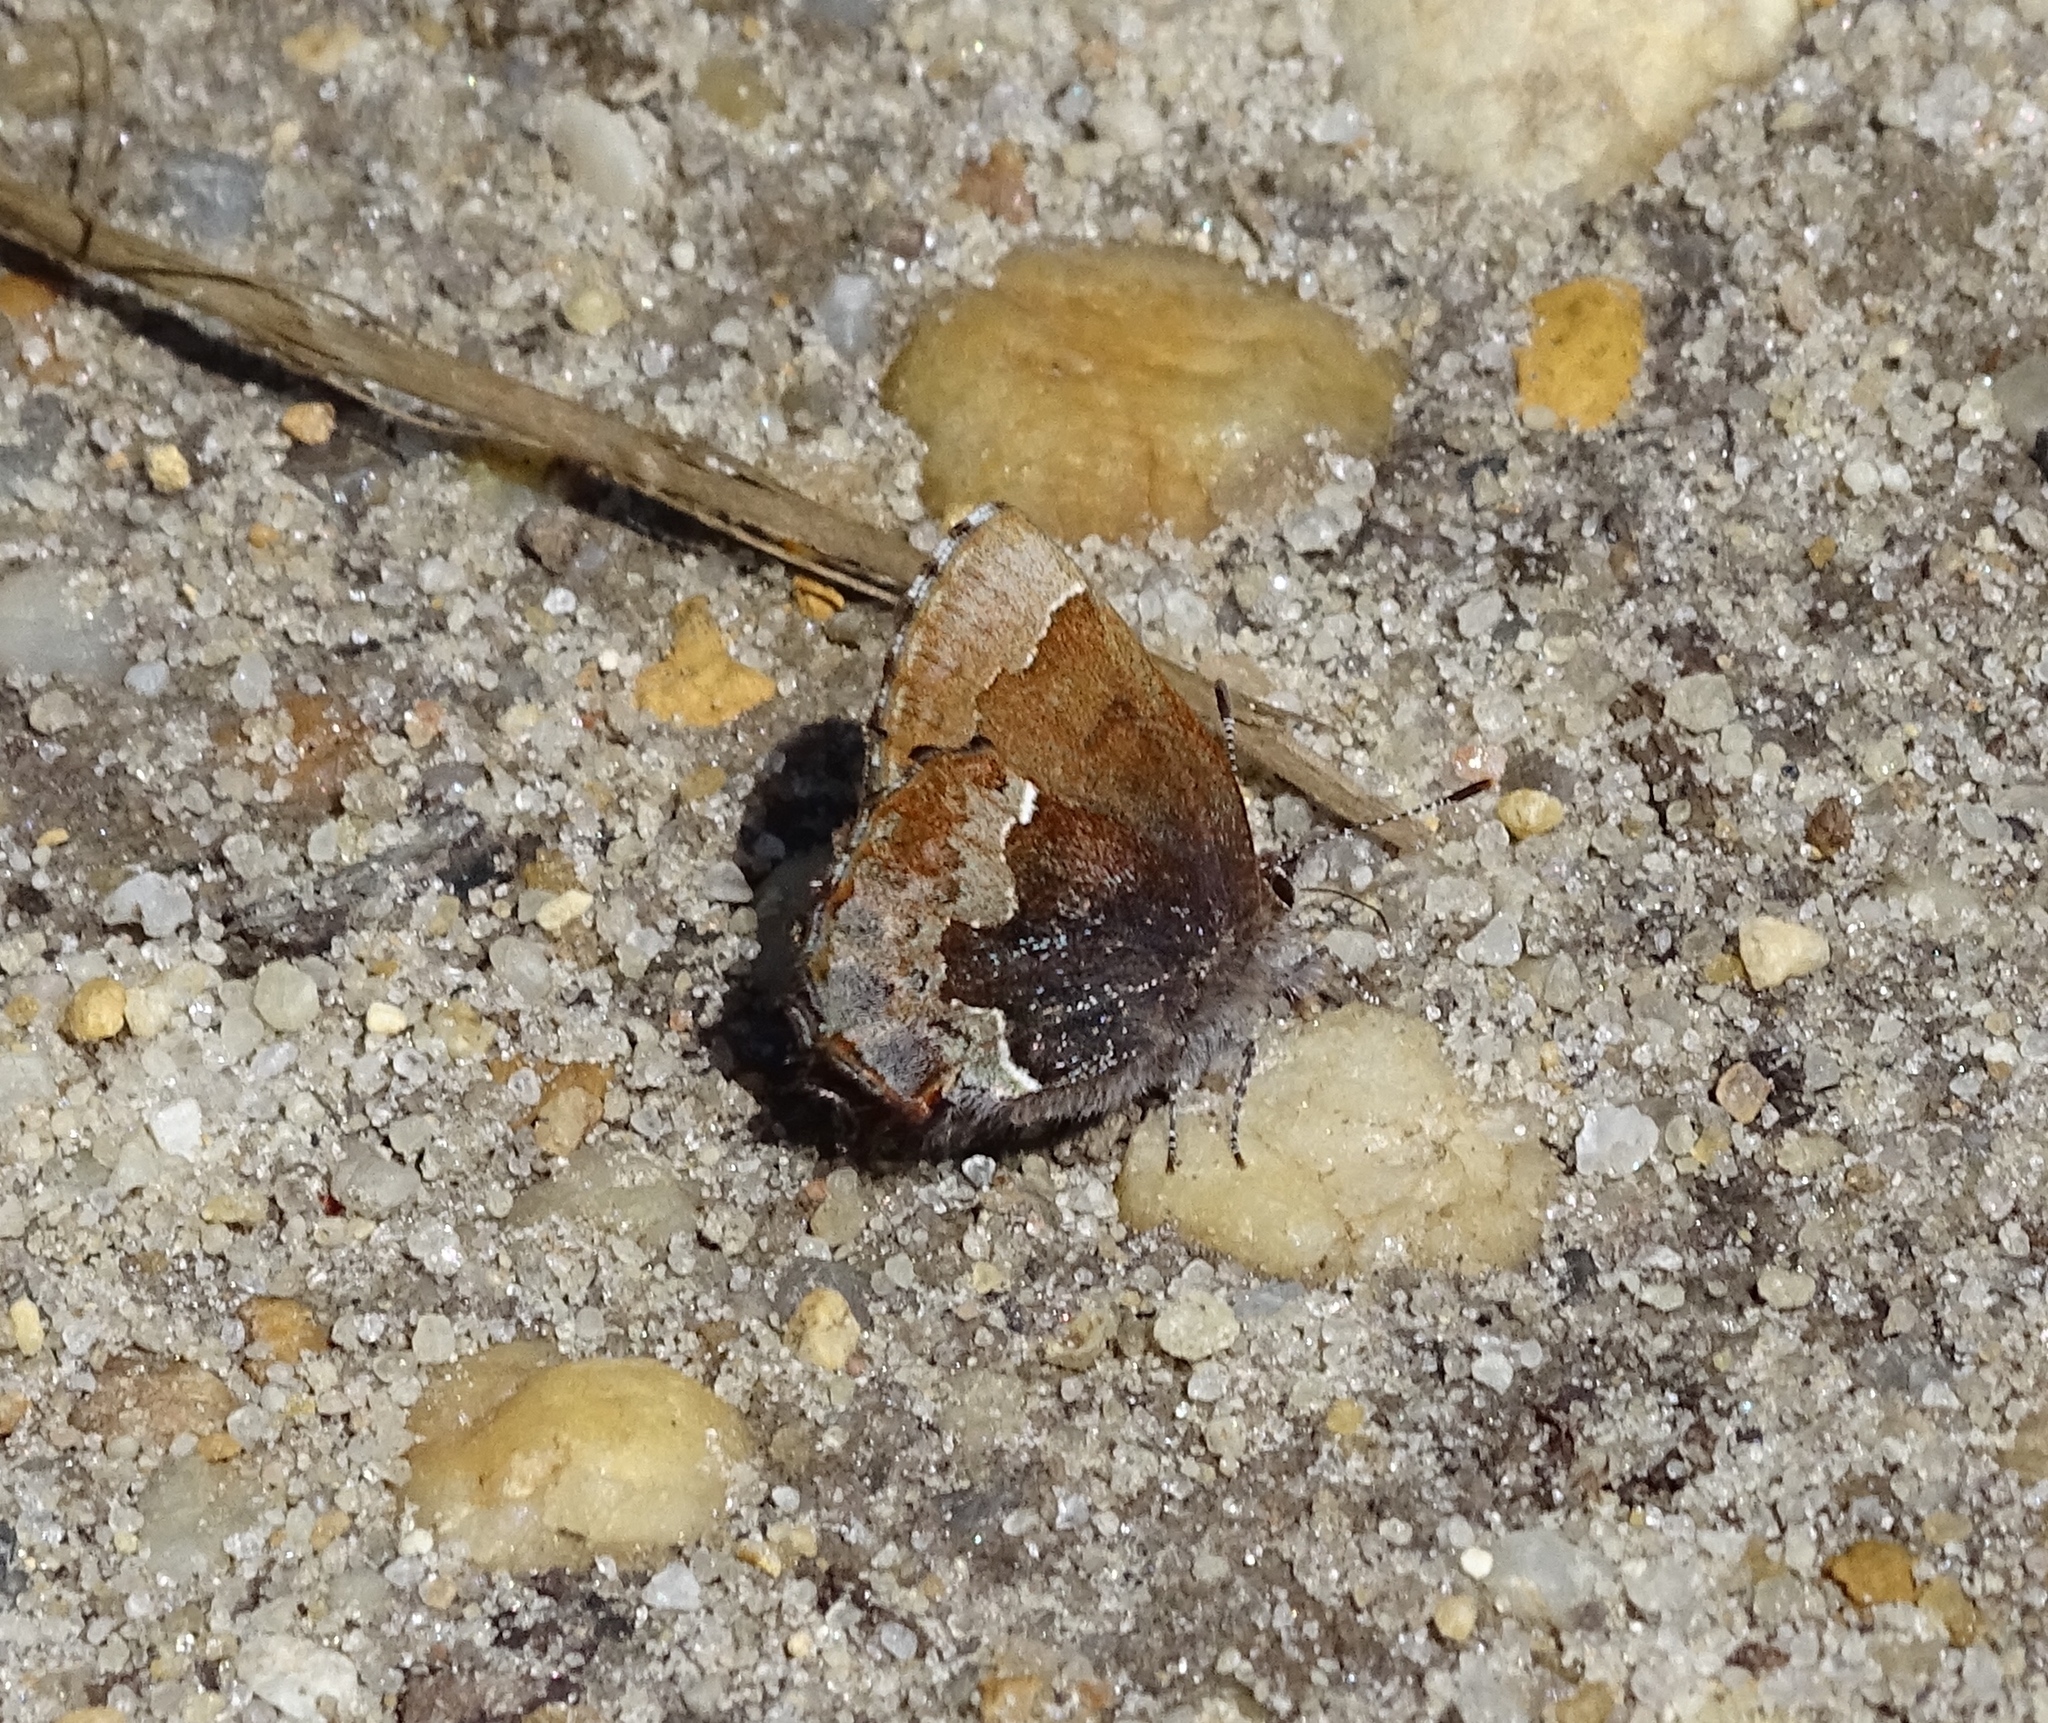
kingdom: Animalia
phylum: Arthropoda
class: Insecta
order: Lepidoptera
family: Lycaenidae
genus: Incisalia
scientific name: Incisalia henrici
